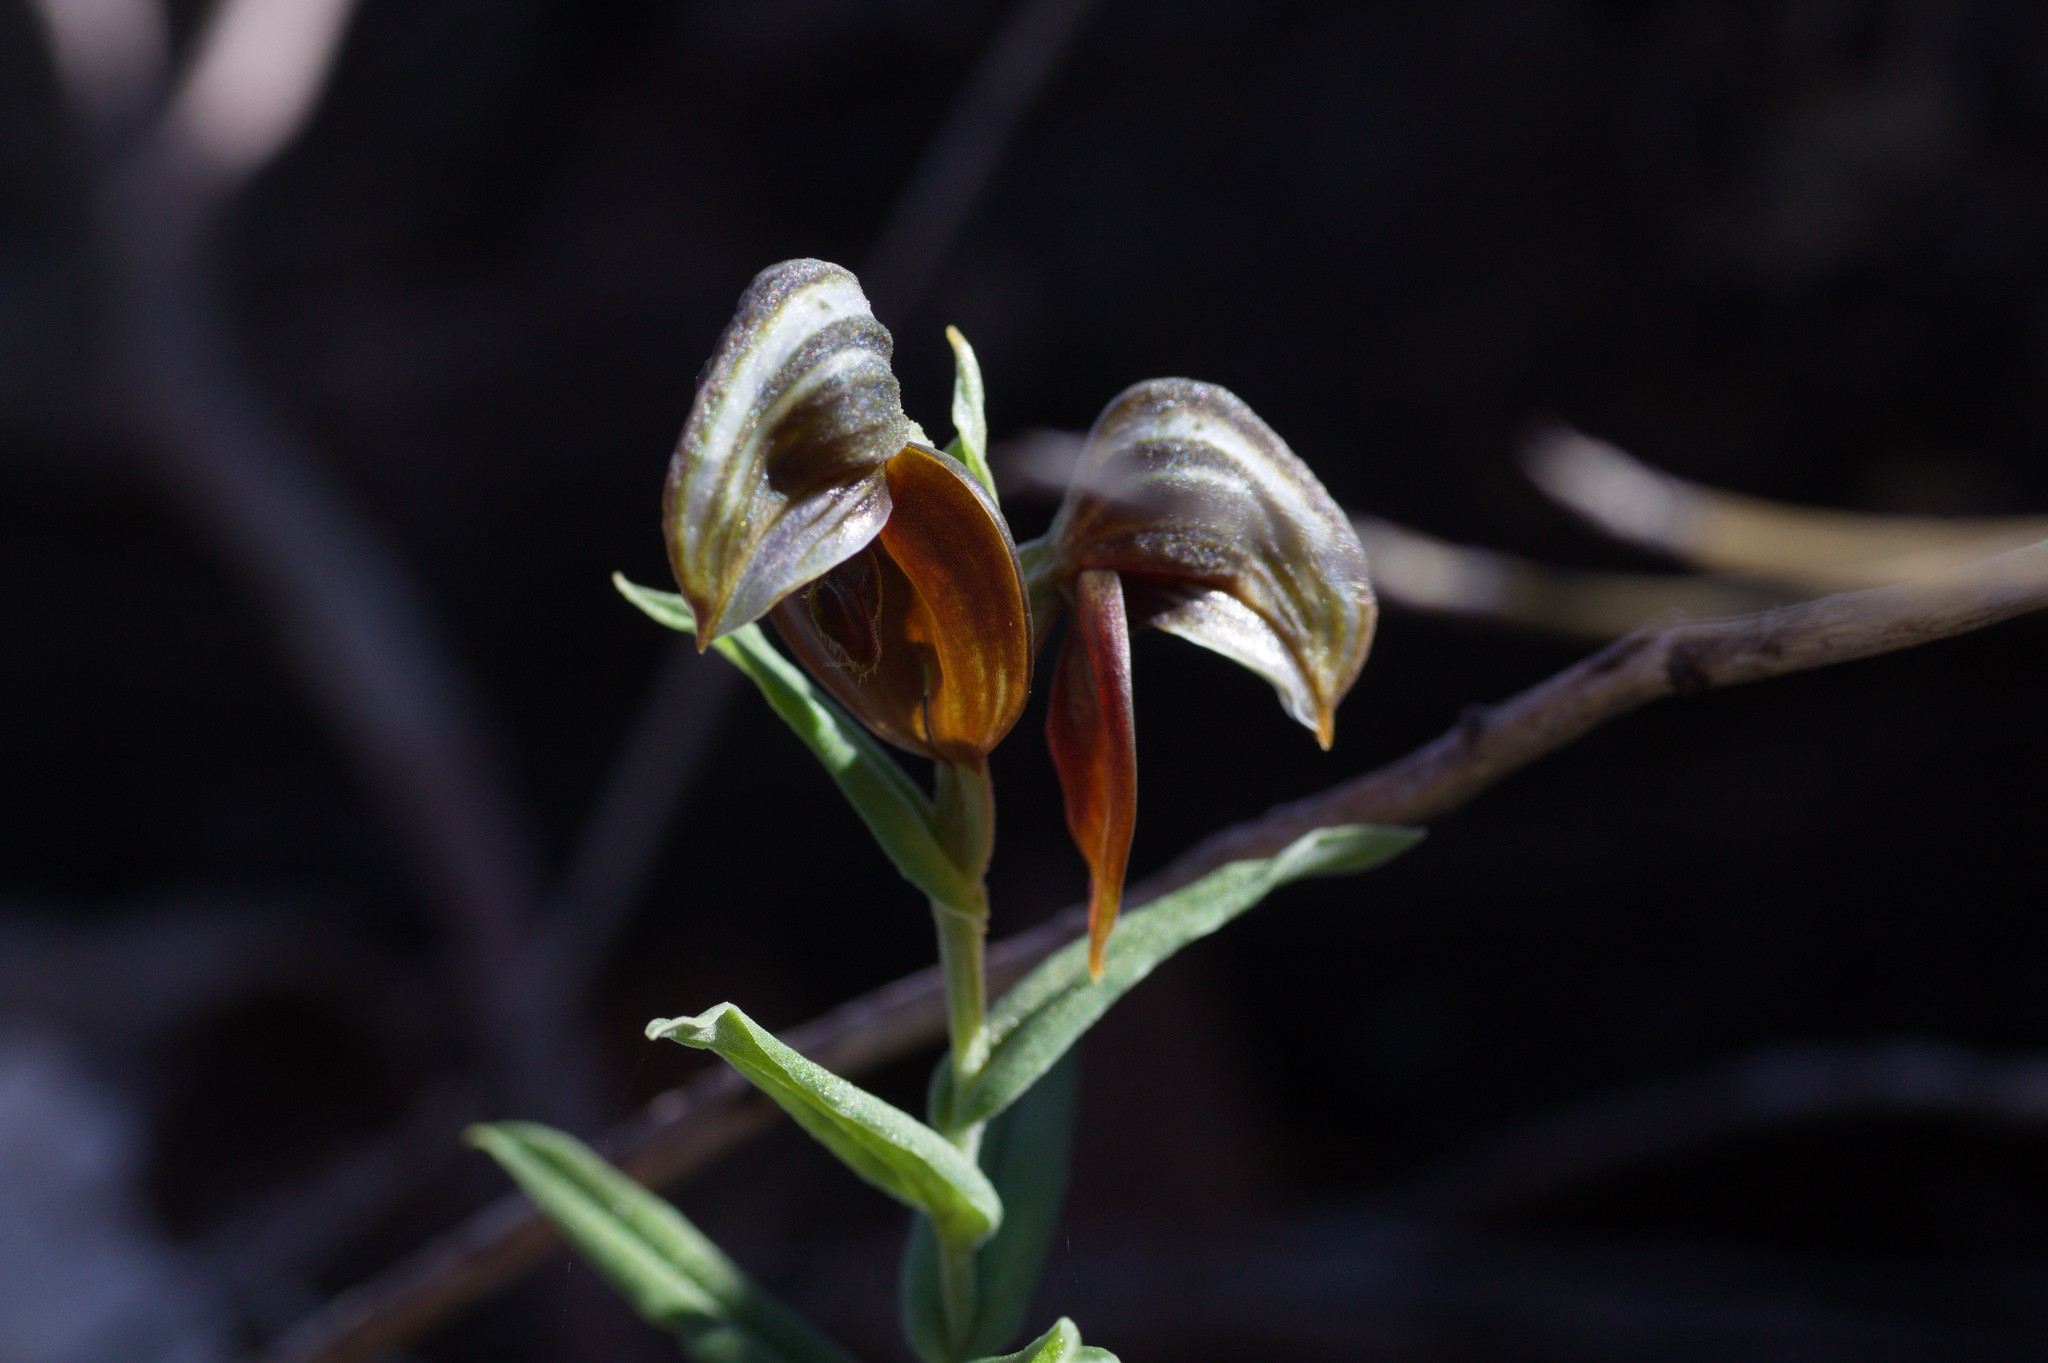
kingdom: Plantae
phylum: Tracheophyta
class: Liliopsida
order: Asparagales
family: Orchidaceae
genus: Pterostylis
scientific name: Pterostylis sanguinea
